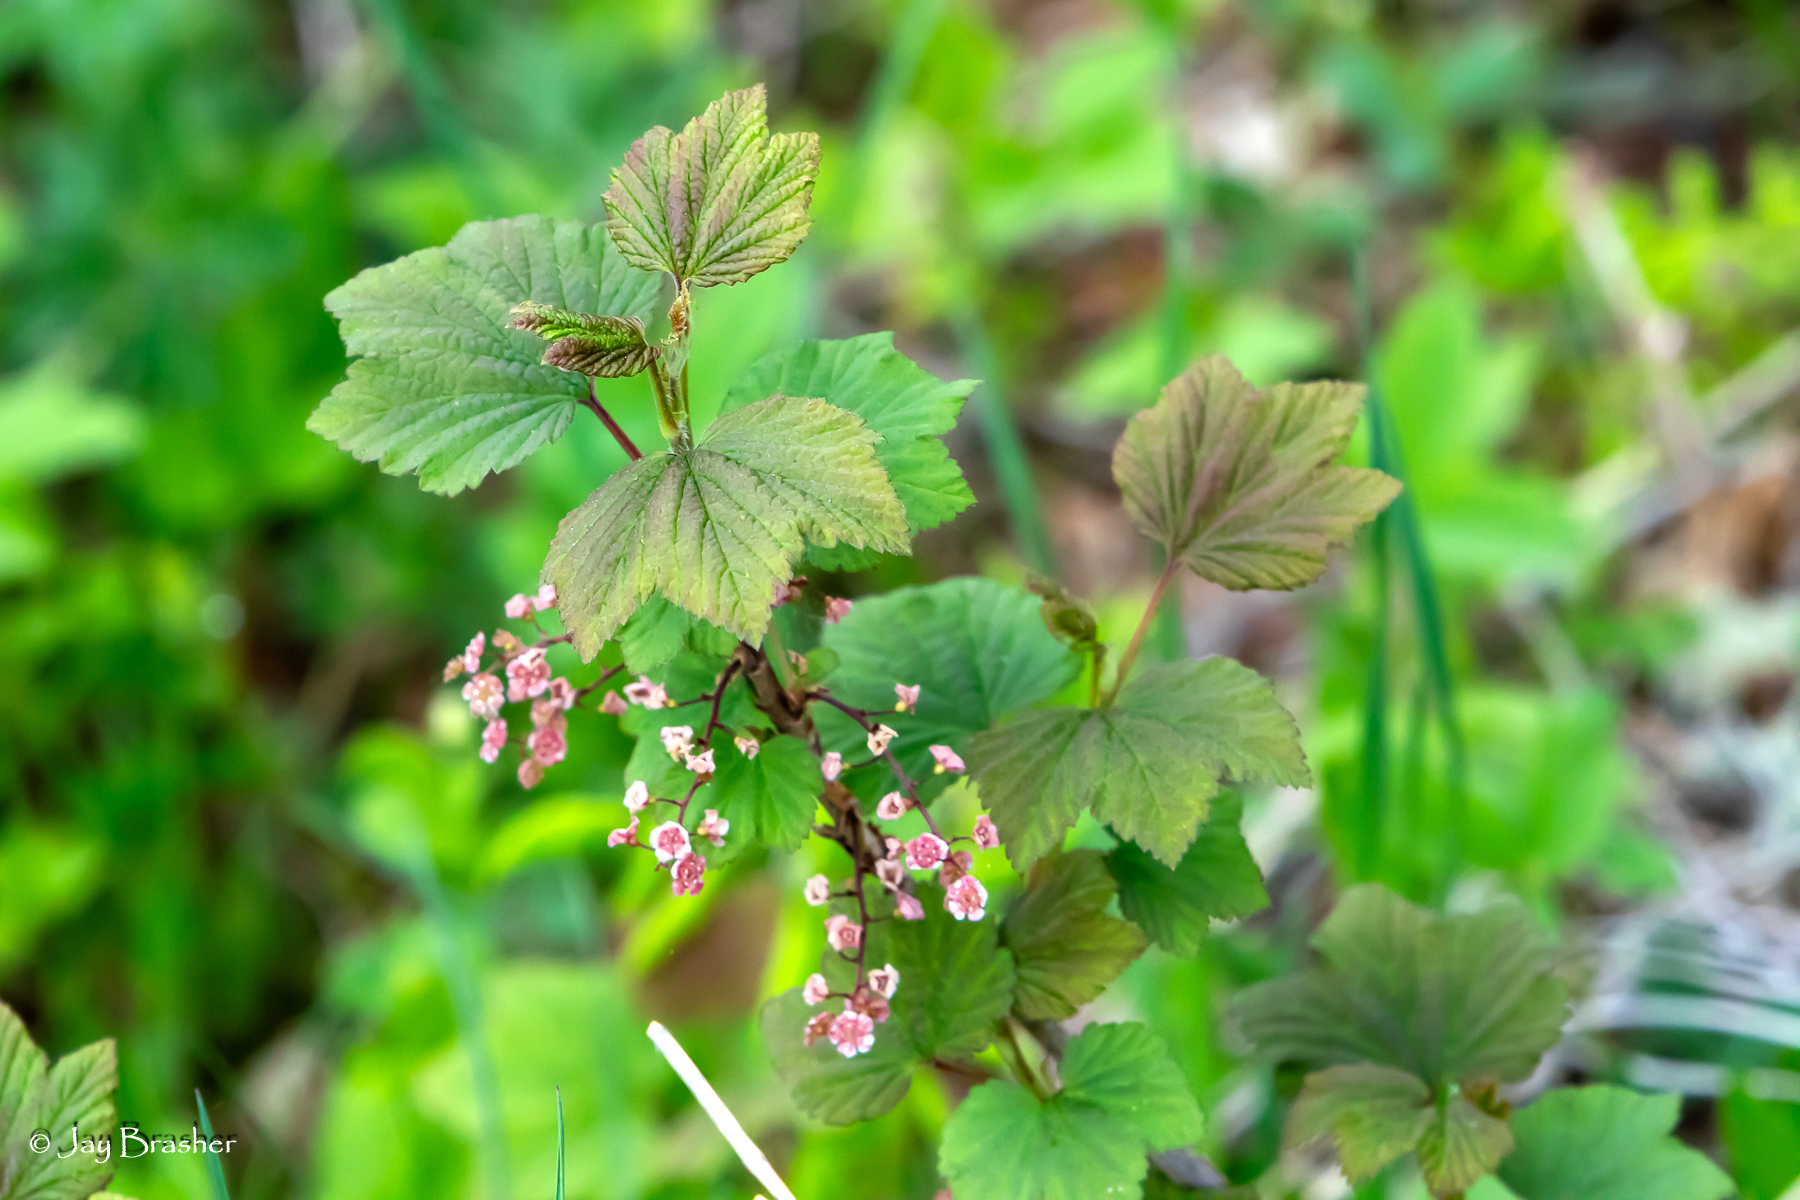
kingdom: Plantae
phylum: Tracheophyta
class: Magnoliopsida
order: Saxifragales
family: Grossulariaceae
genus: Ribes
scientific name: Ribes triste
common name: Swamp red currant
